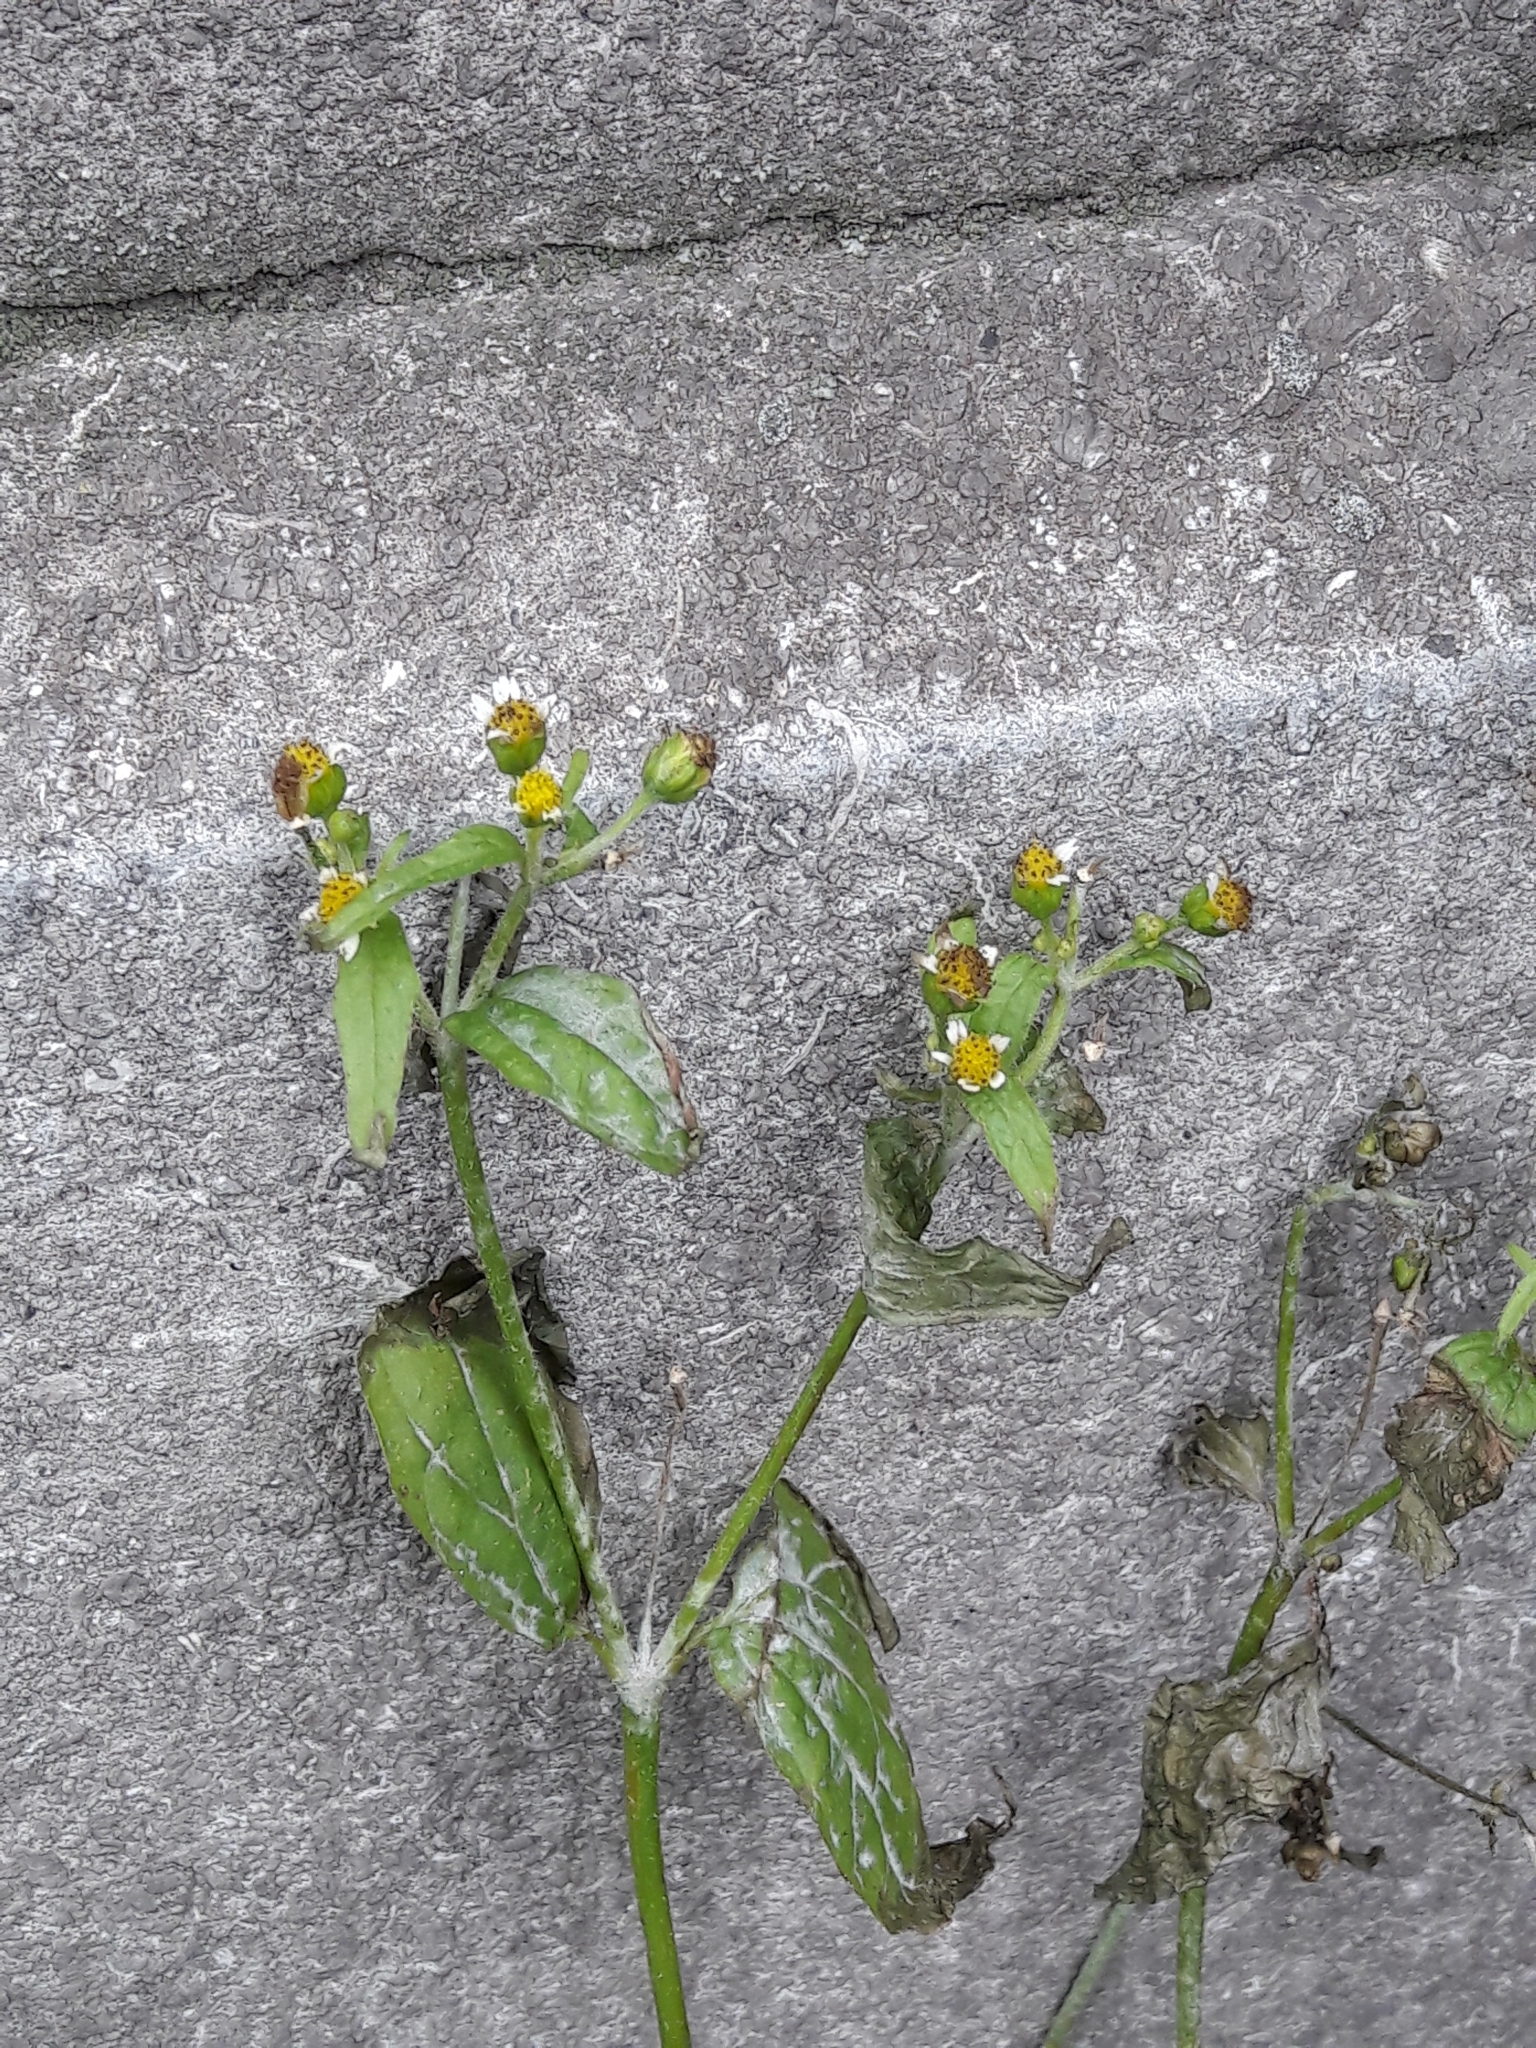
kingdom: Plantae
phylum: Tracheophyta
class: Magnoliopsida
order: Asterales
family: Asteraceae
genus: Galinsoga
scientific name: Galinsoga quadriradiata
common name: Shaggy soldier
